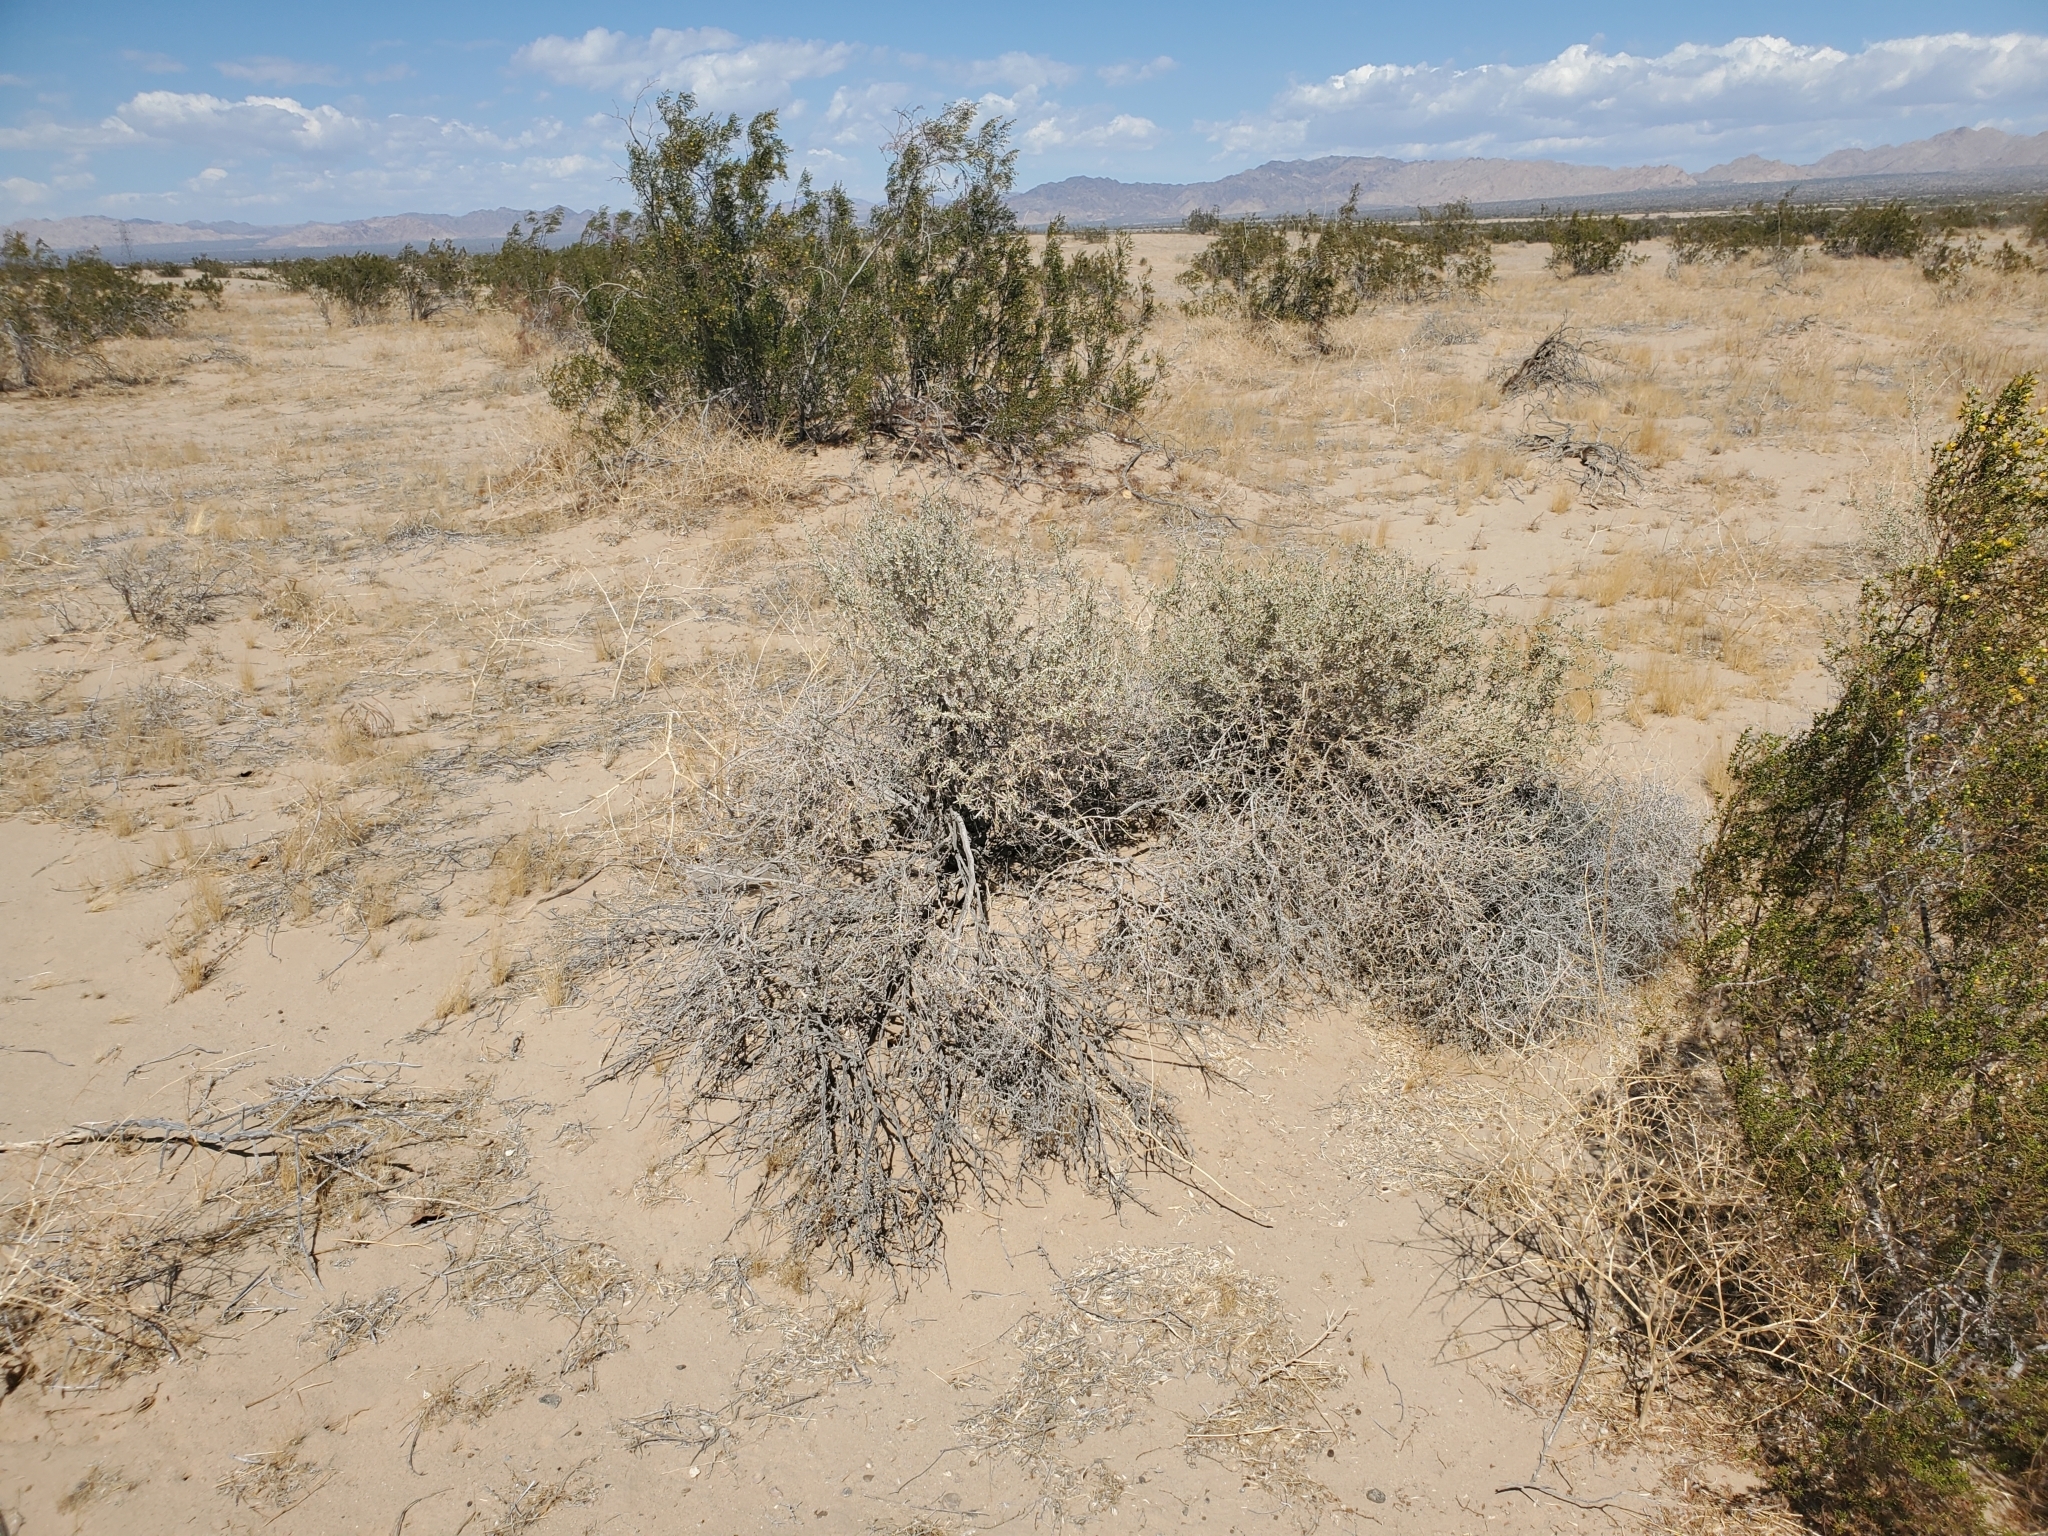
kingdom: Plantae
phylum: Tracheophyta
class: Magnoliopsida
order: Caryophyllales
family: Amaranthaceae
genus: Atriplex
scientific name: Atriplex canescens
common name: Four-wing saltbush
